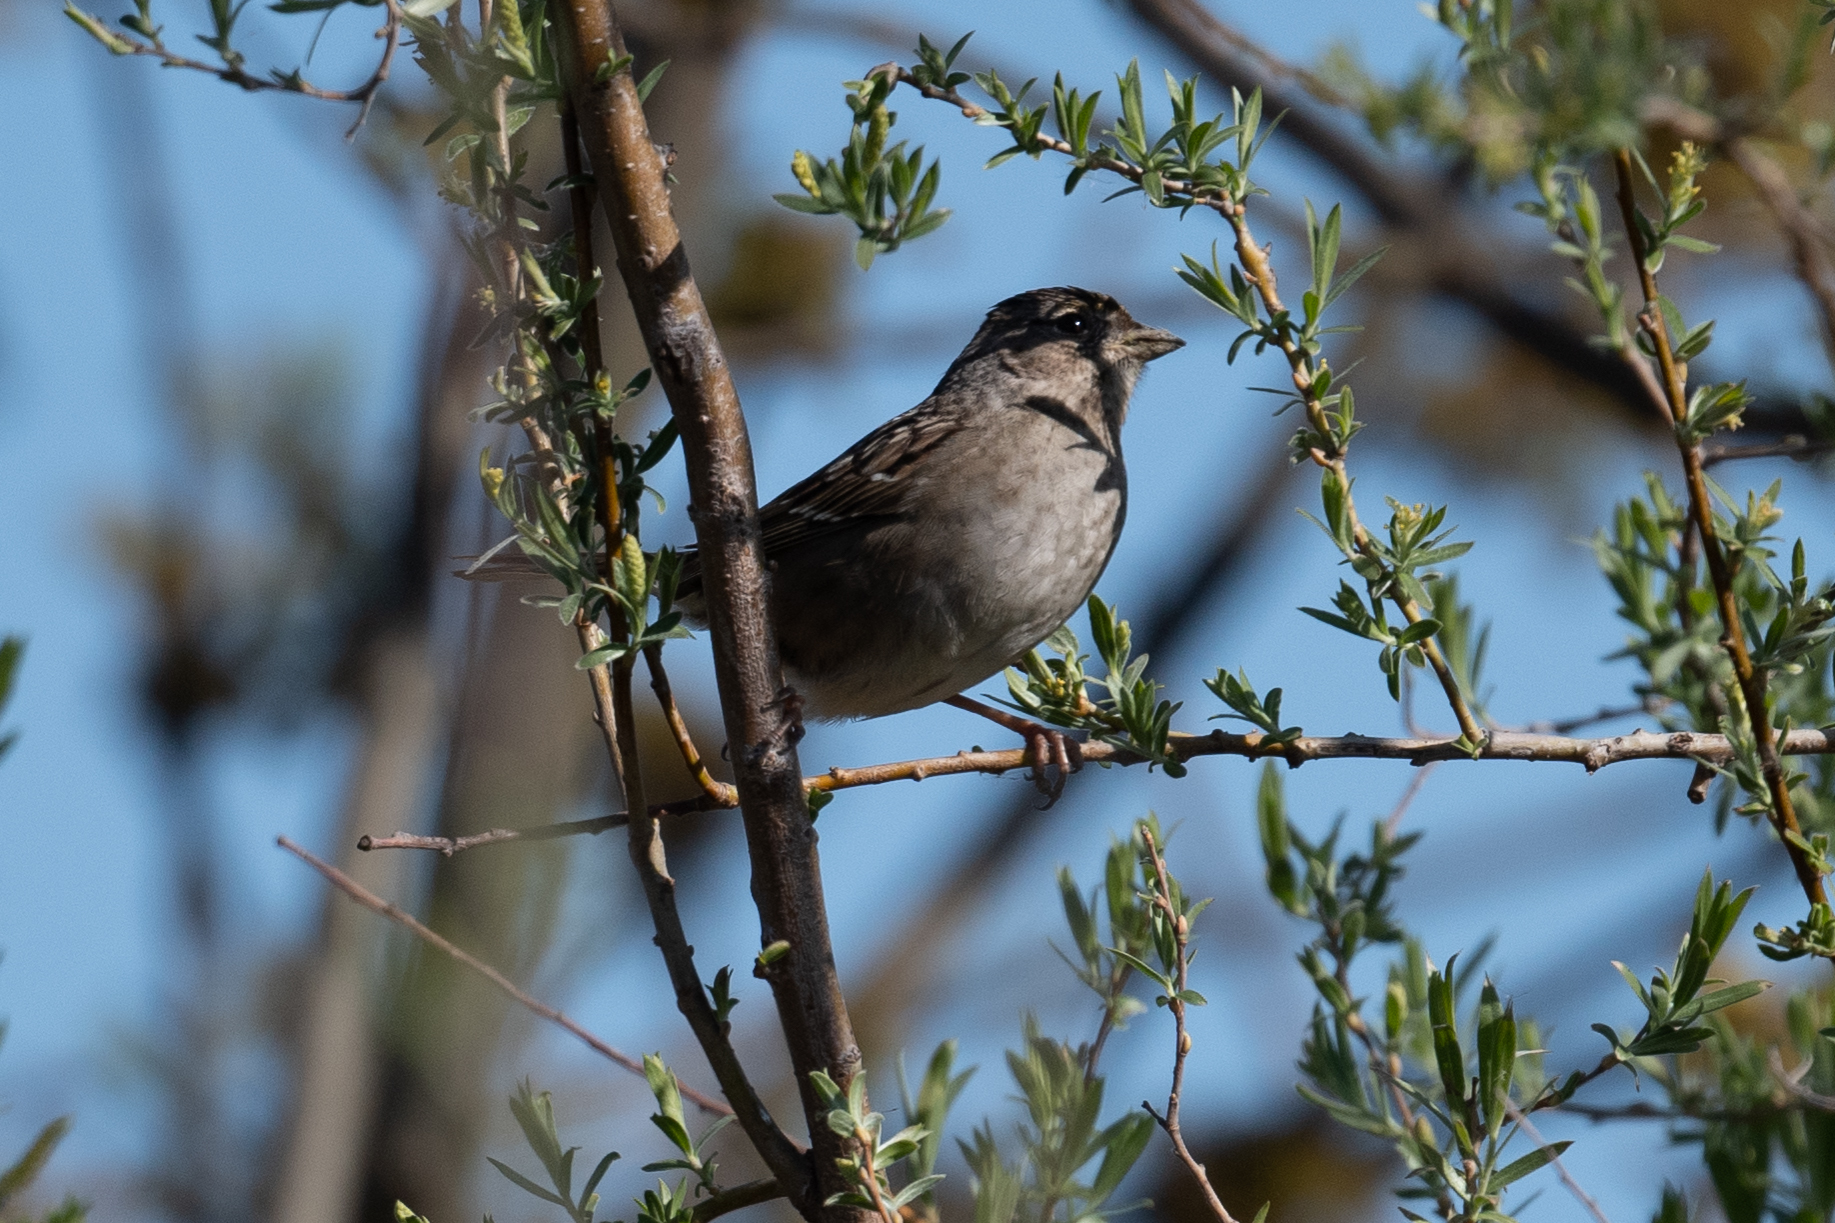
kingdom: Animalia
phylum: Chordata
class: Aves
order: Passeriformes
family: Passerellidae
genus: Zonotrichia
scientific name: Zonotrichia atricapilla
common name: Golden-crowned sparrow
